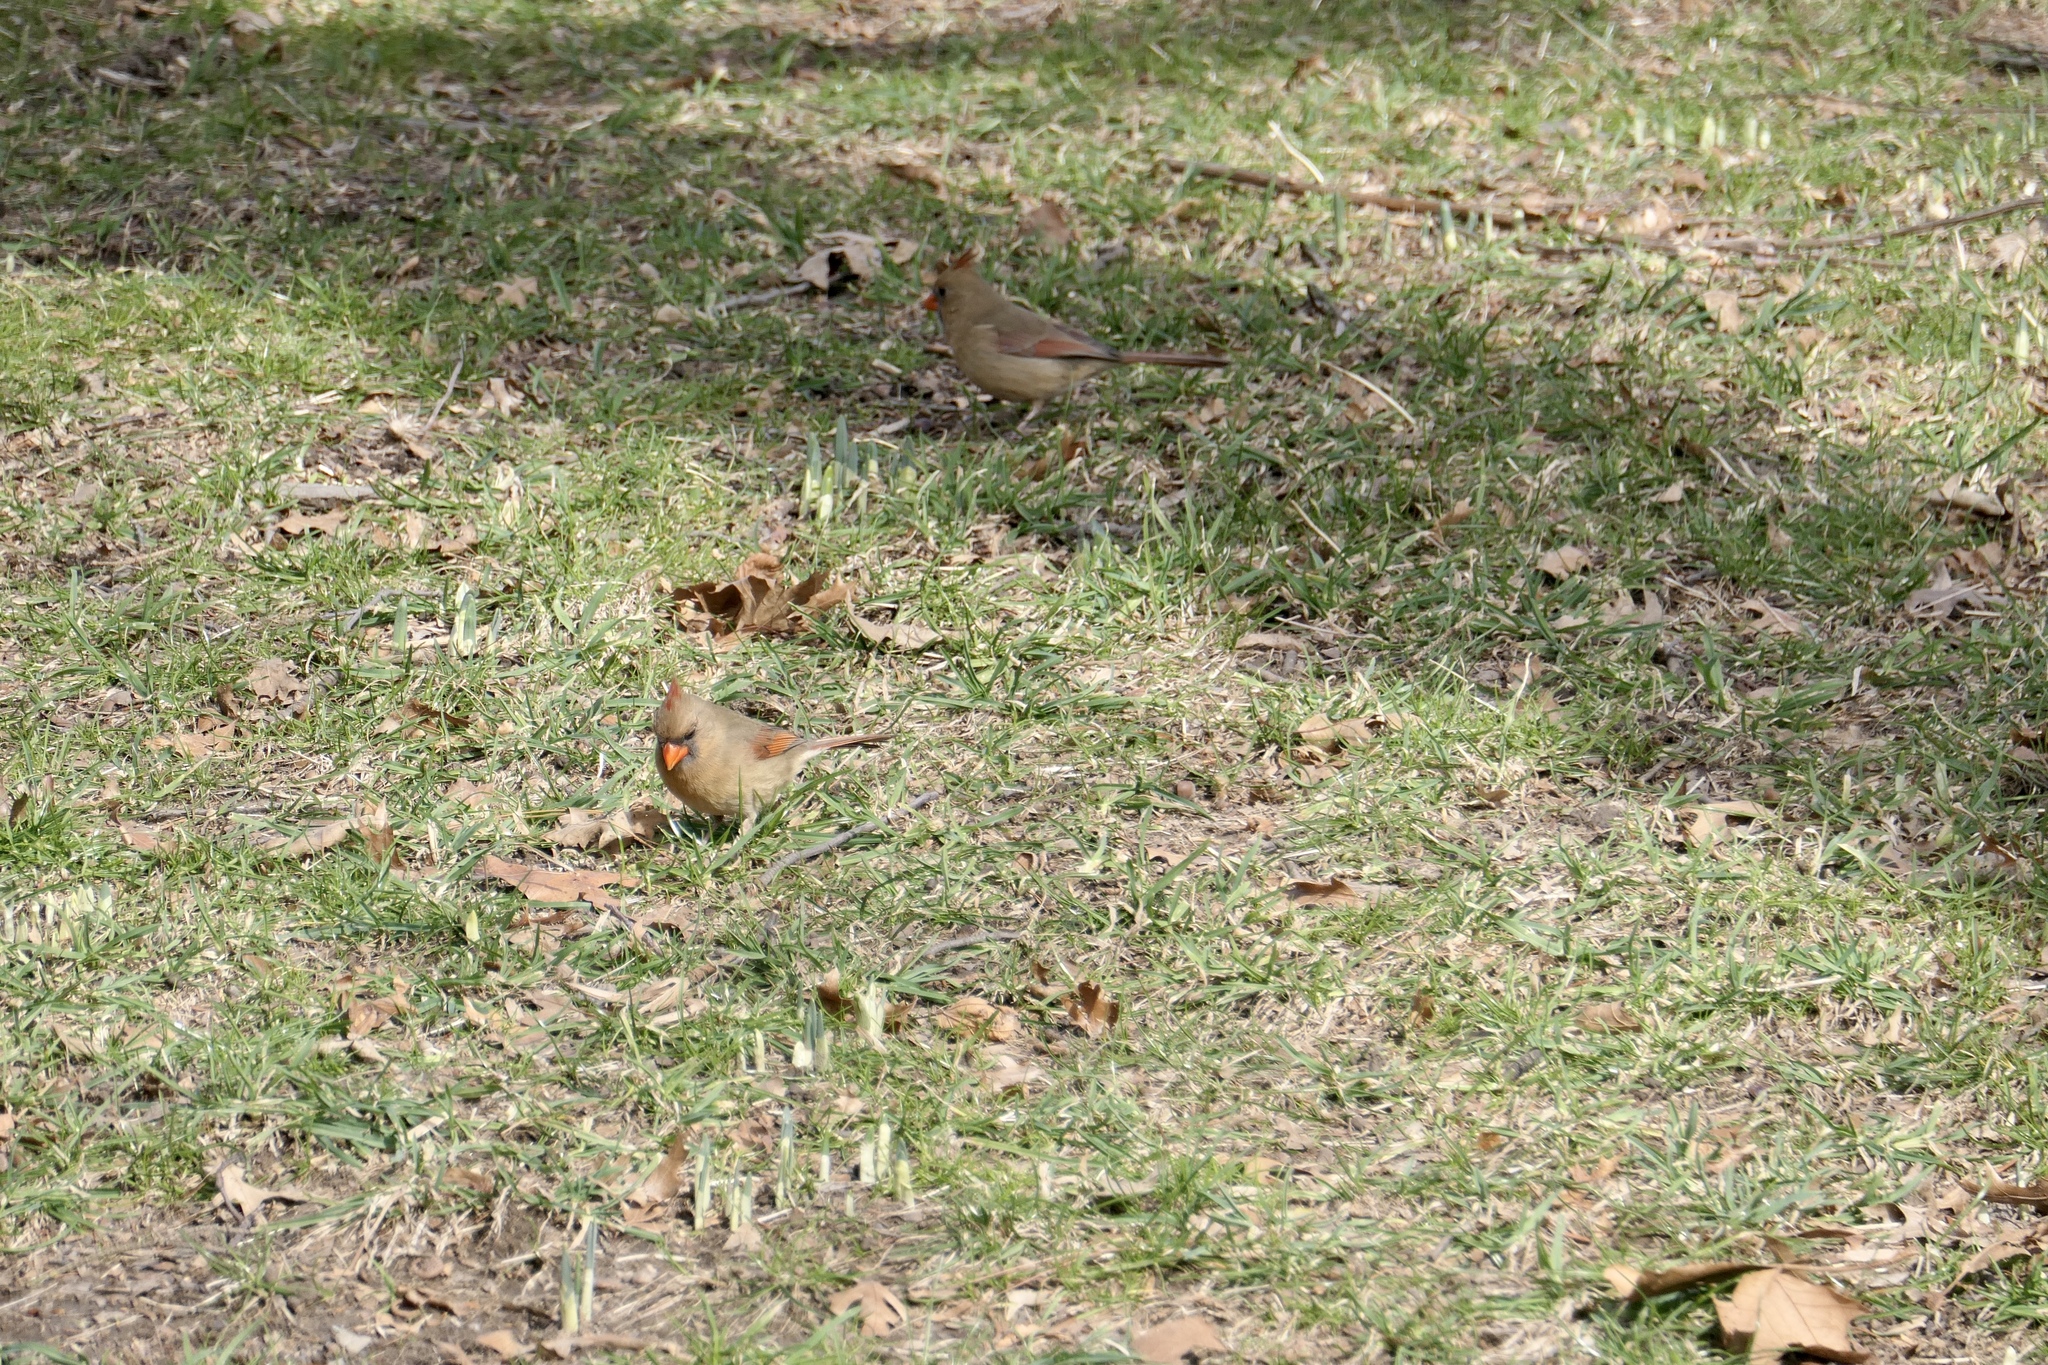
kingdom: Animalia
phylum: Chordata
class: Aves
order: Passeriformes
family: Cardinalidae
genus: Cardinalis
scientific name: Cardinalis cardinalis
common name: Northern cardinal
